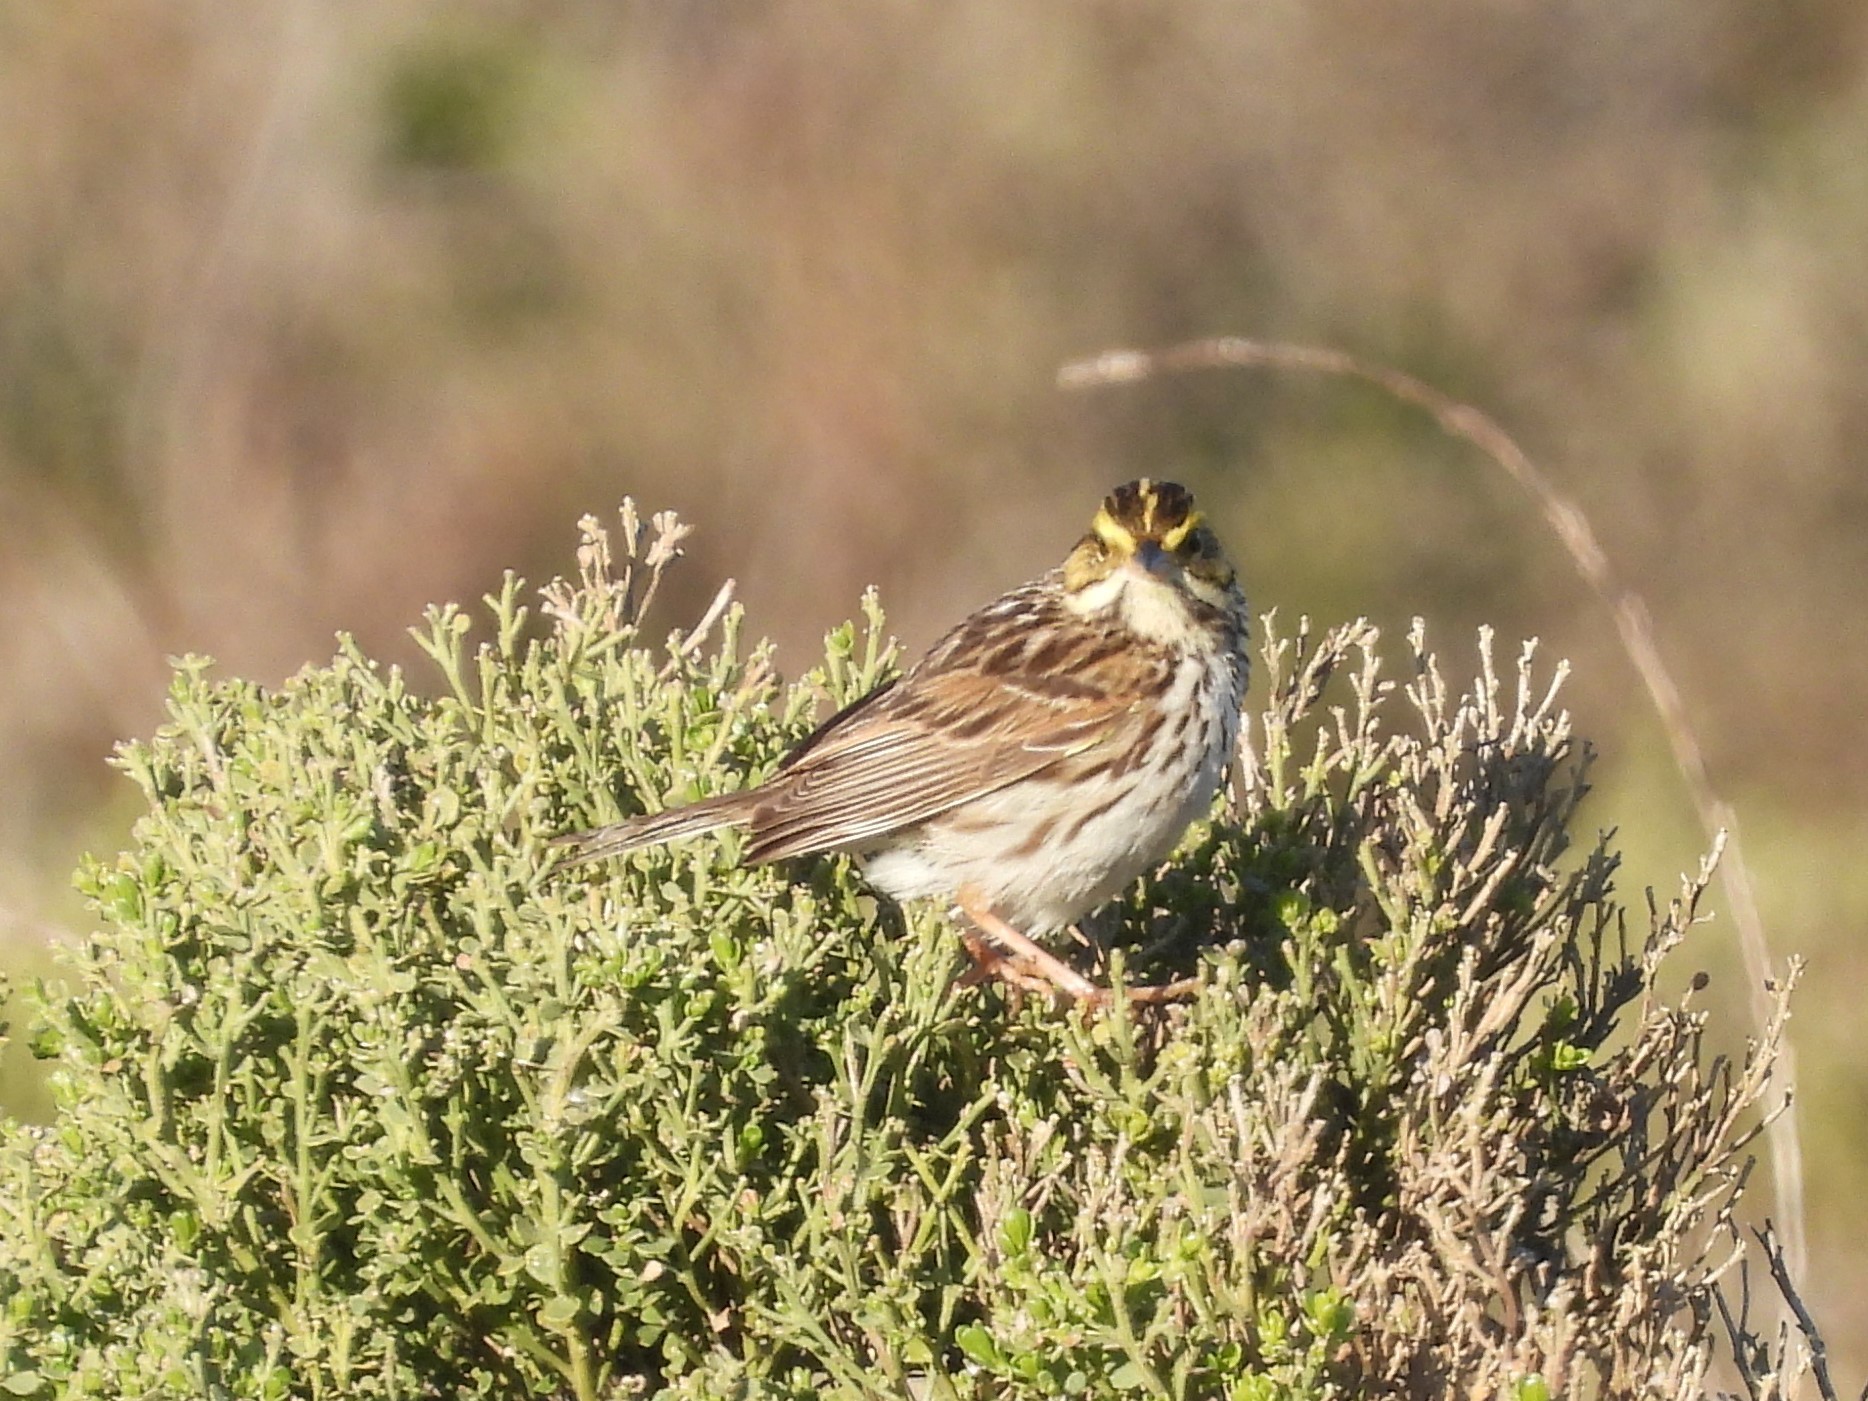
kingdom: Animalia
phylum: Chordata
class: Aves
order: Passeriformes
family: Passerellidae
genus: Passerculus
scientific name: Passerculus sandwichensis
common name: Savannah sparrow
